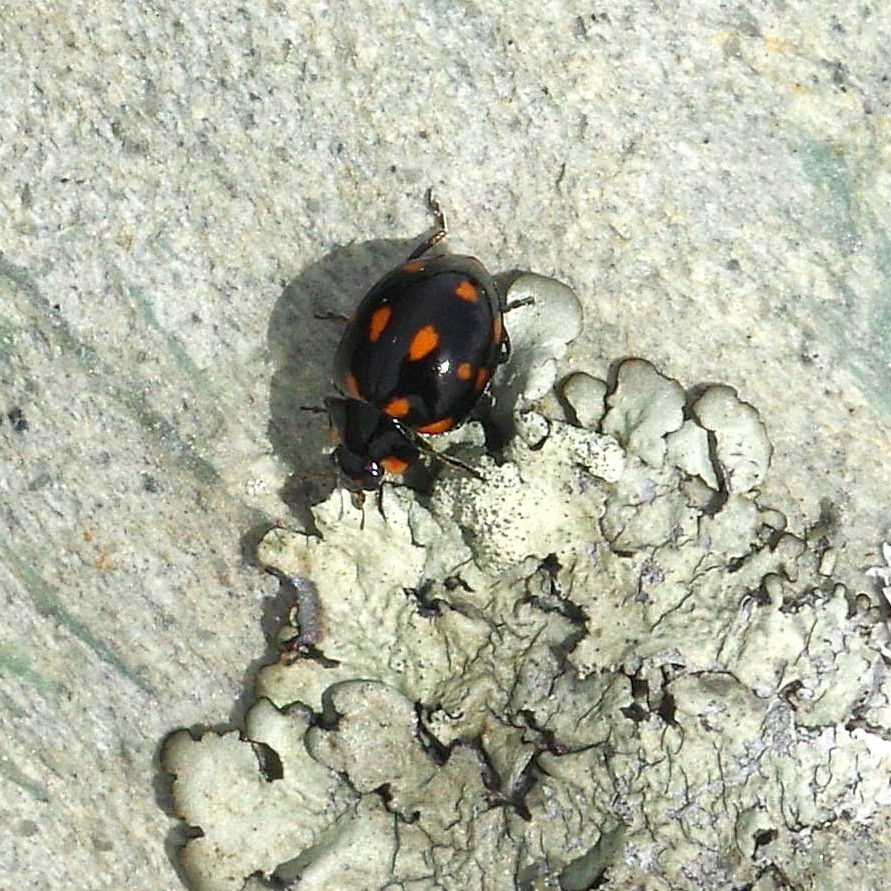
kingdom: Animalia
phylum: Arthropoda
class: Insecta
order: Coleoptera
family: Coccinellidae
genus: Coccinella
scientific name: Coccinella leonina
